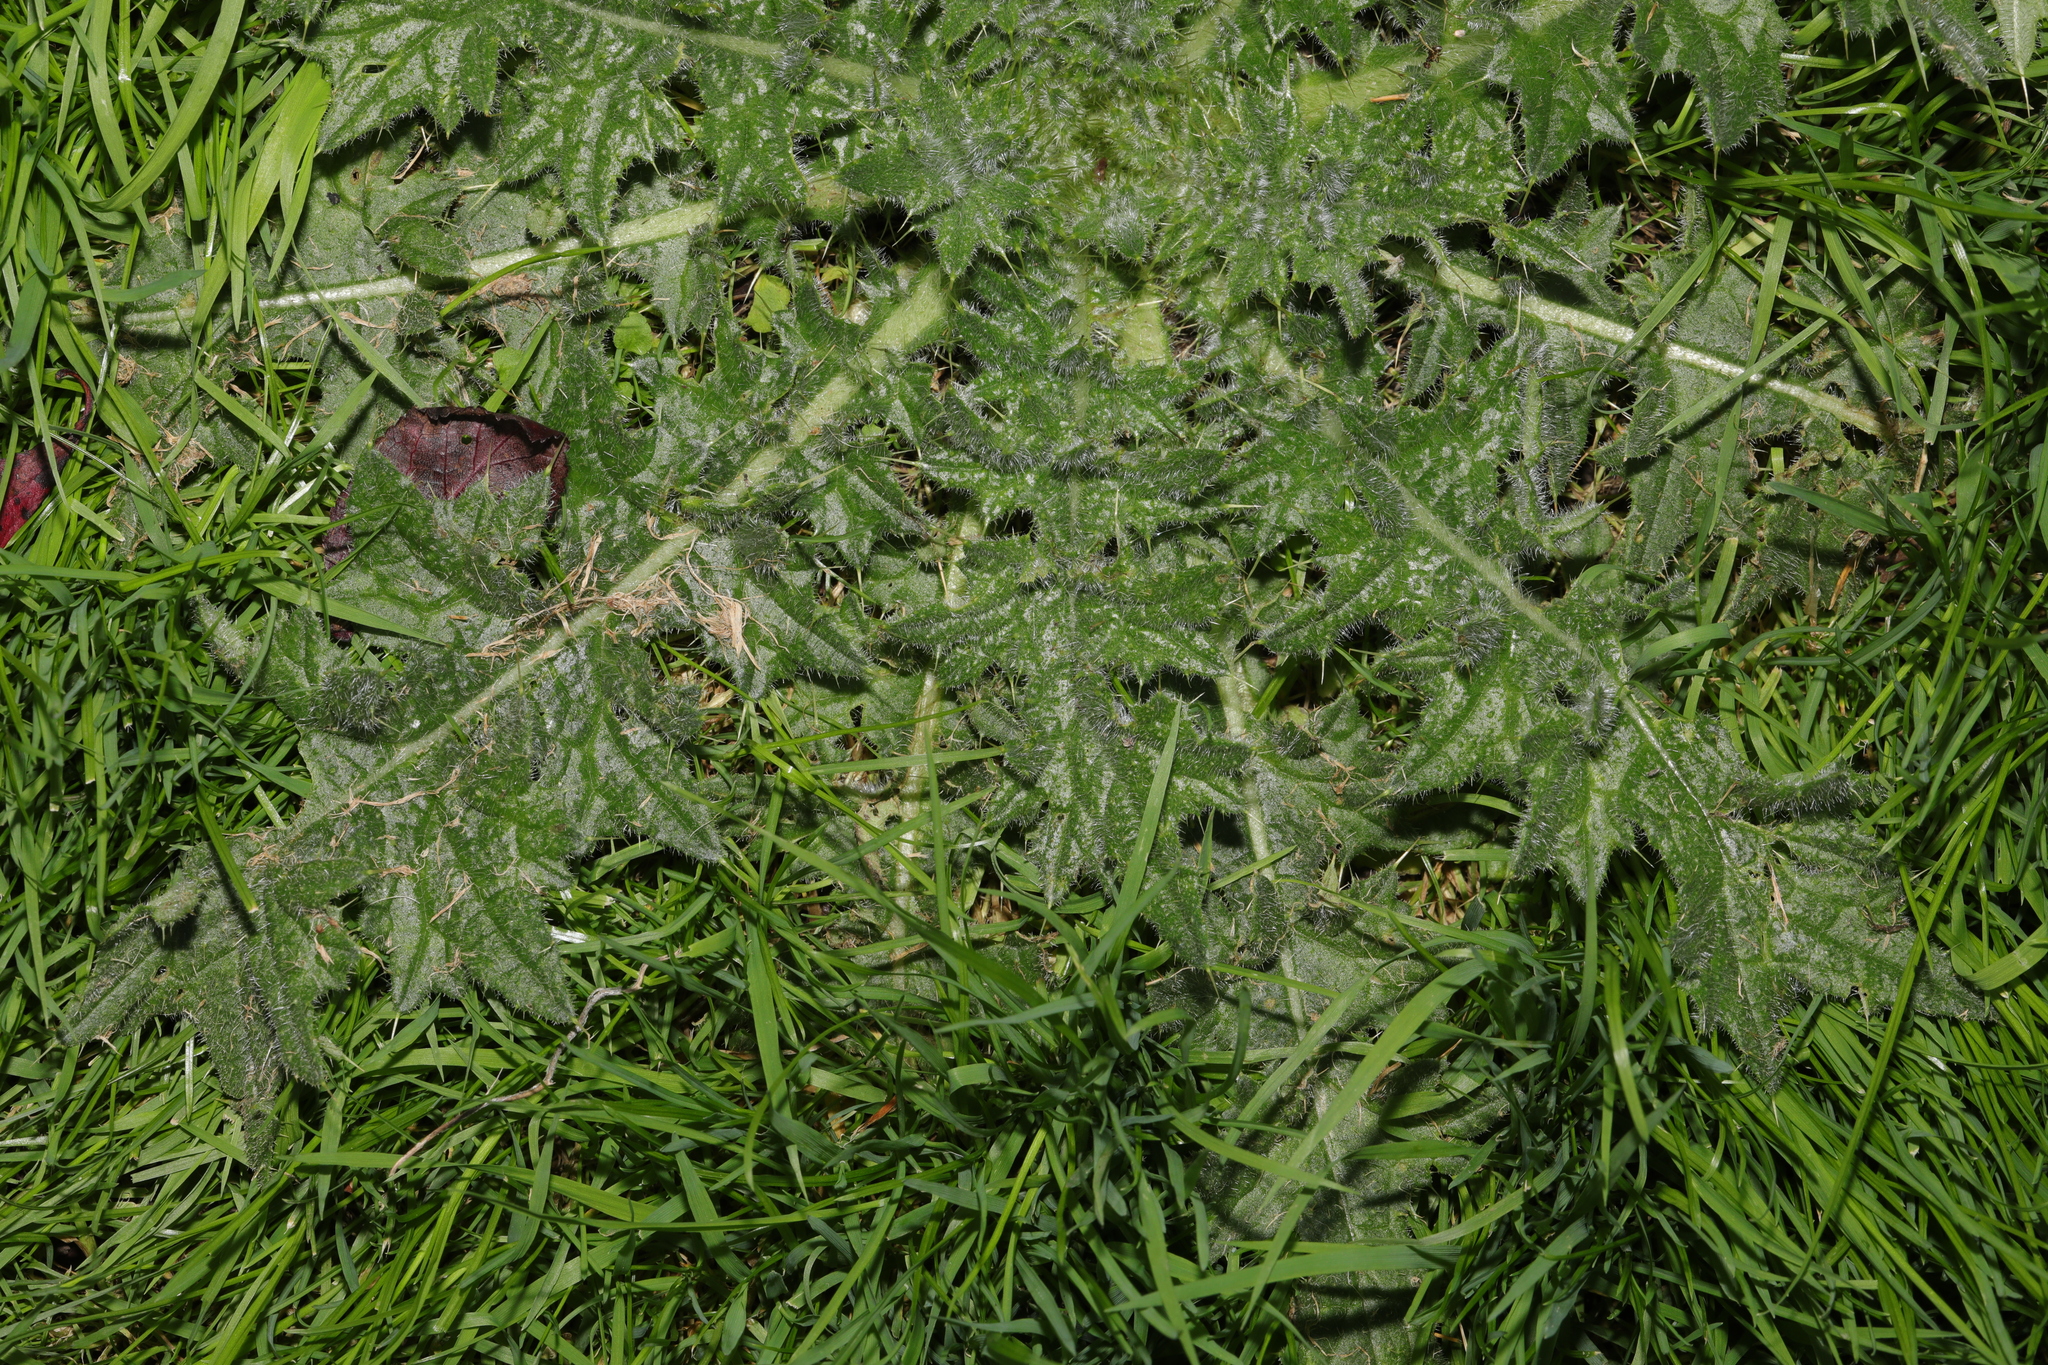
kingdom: Plantae
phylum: Tracheophyta
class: Magnoliopsida
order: Asterales
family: Asteraceae
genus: Cirsium
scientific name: Cirsium vulgare
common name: Bull thistle
